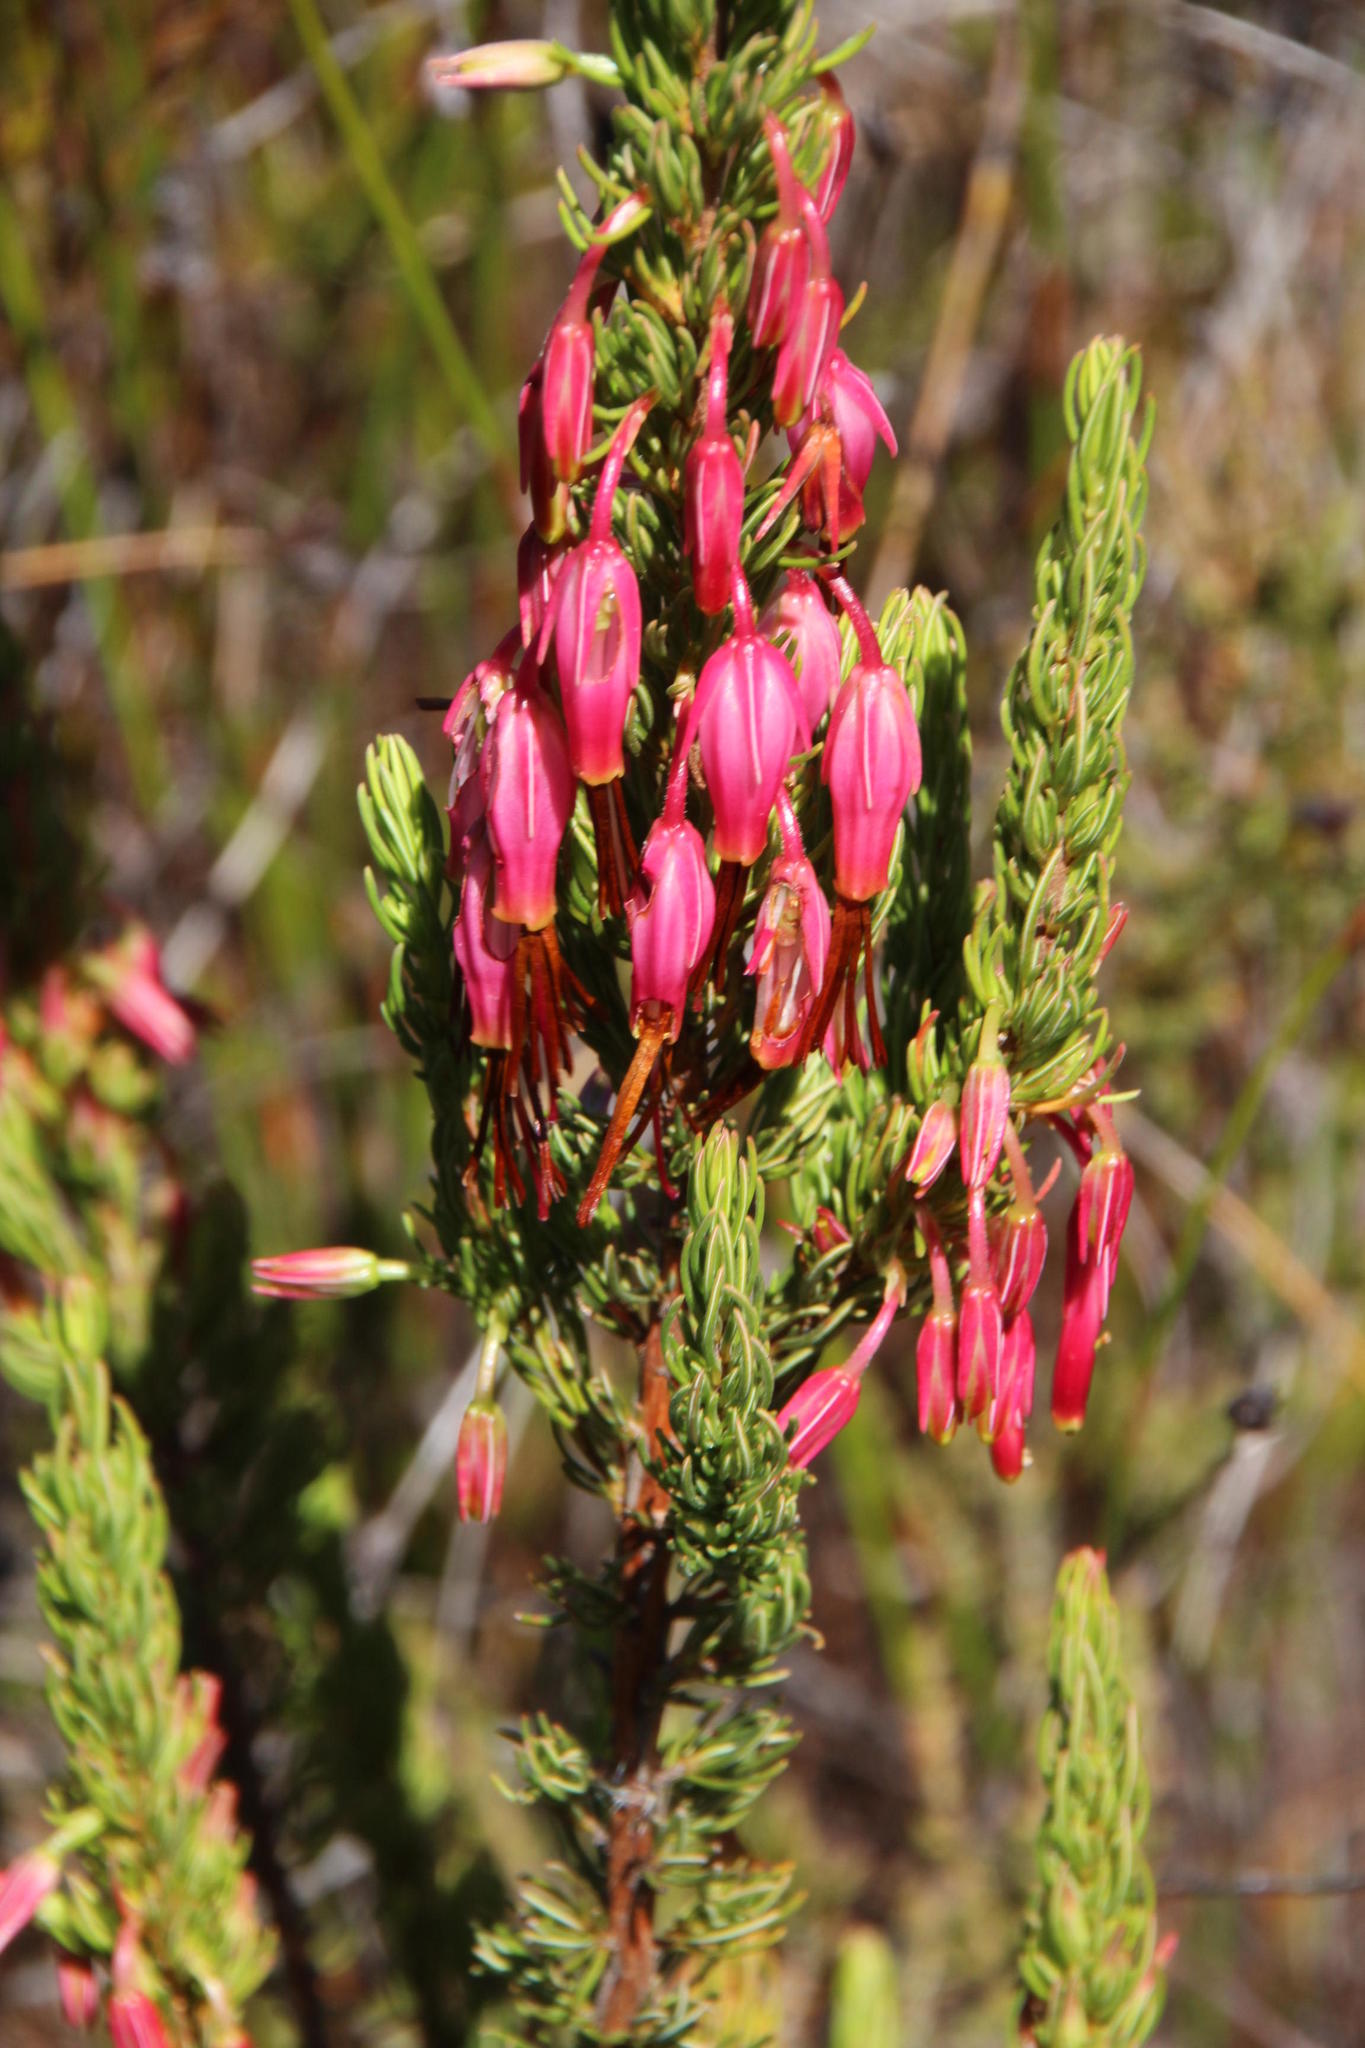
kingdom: Plantae
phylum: Tracheophyta
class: Magnoliopsida
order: Ericales
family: Ericaceae
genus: Erica
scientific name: Erica plukenetii
